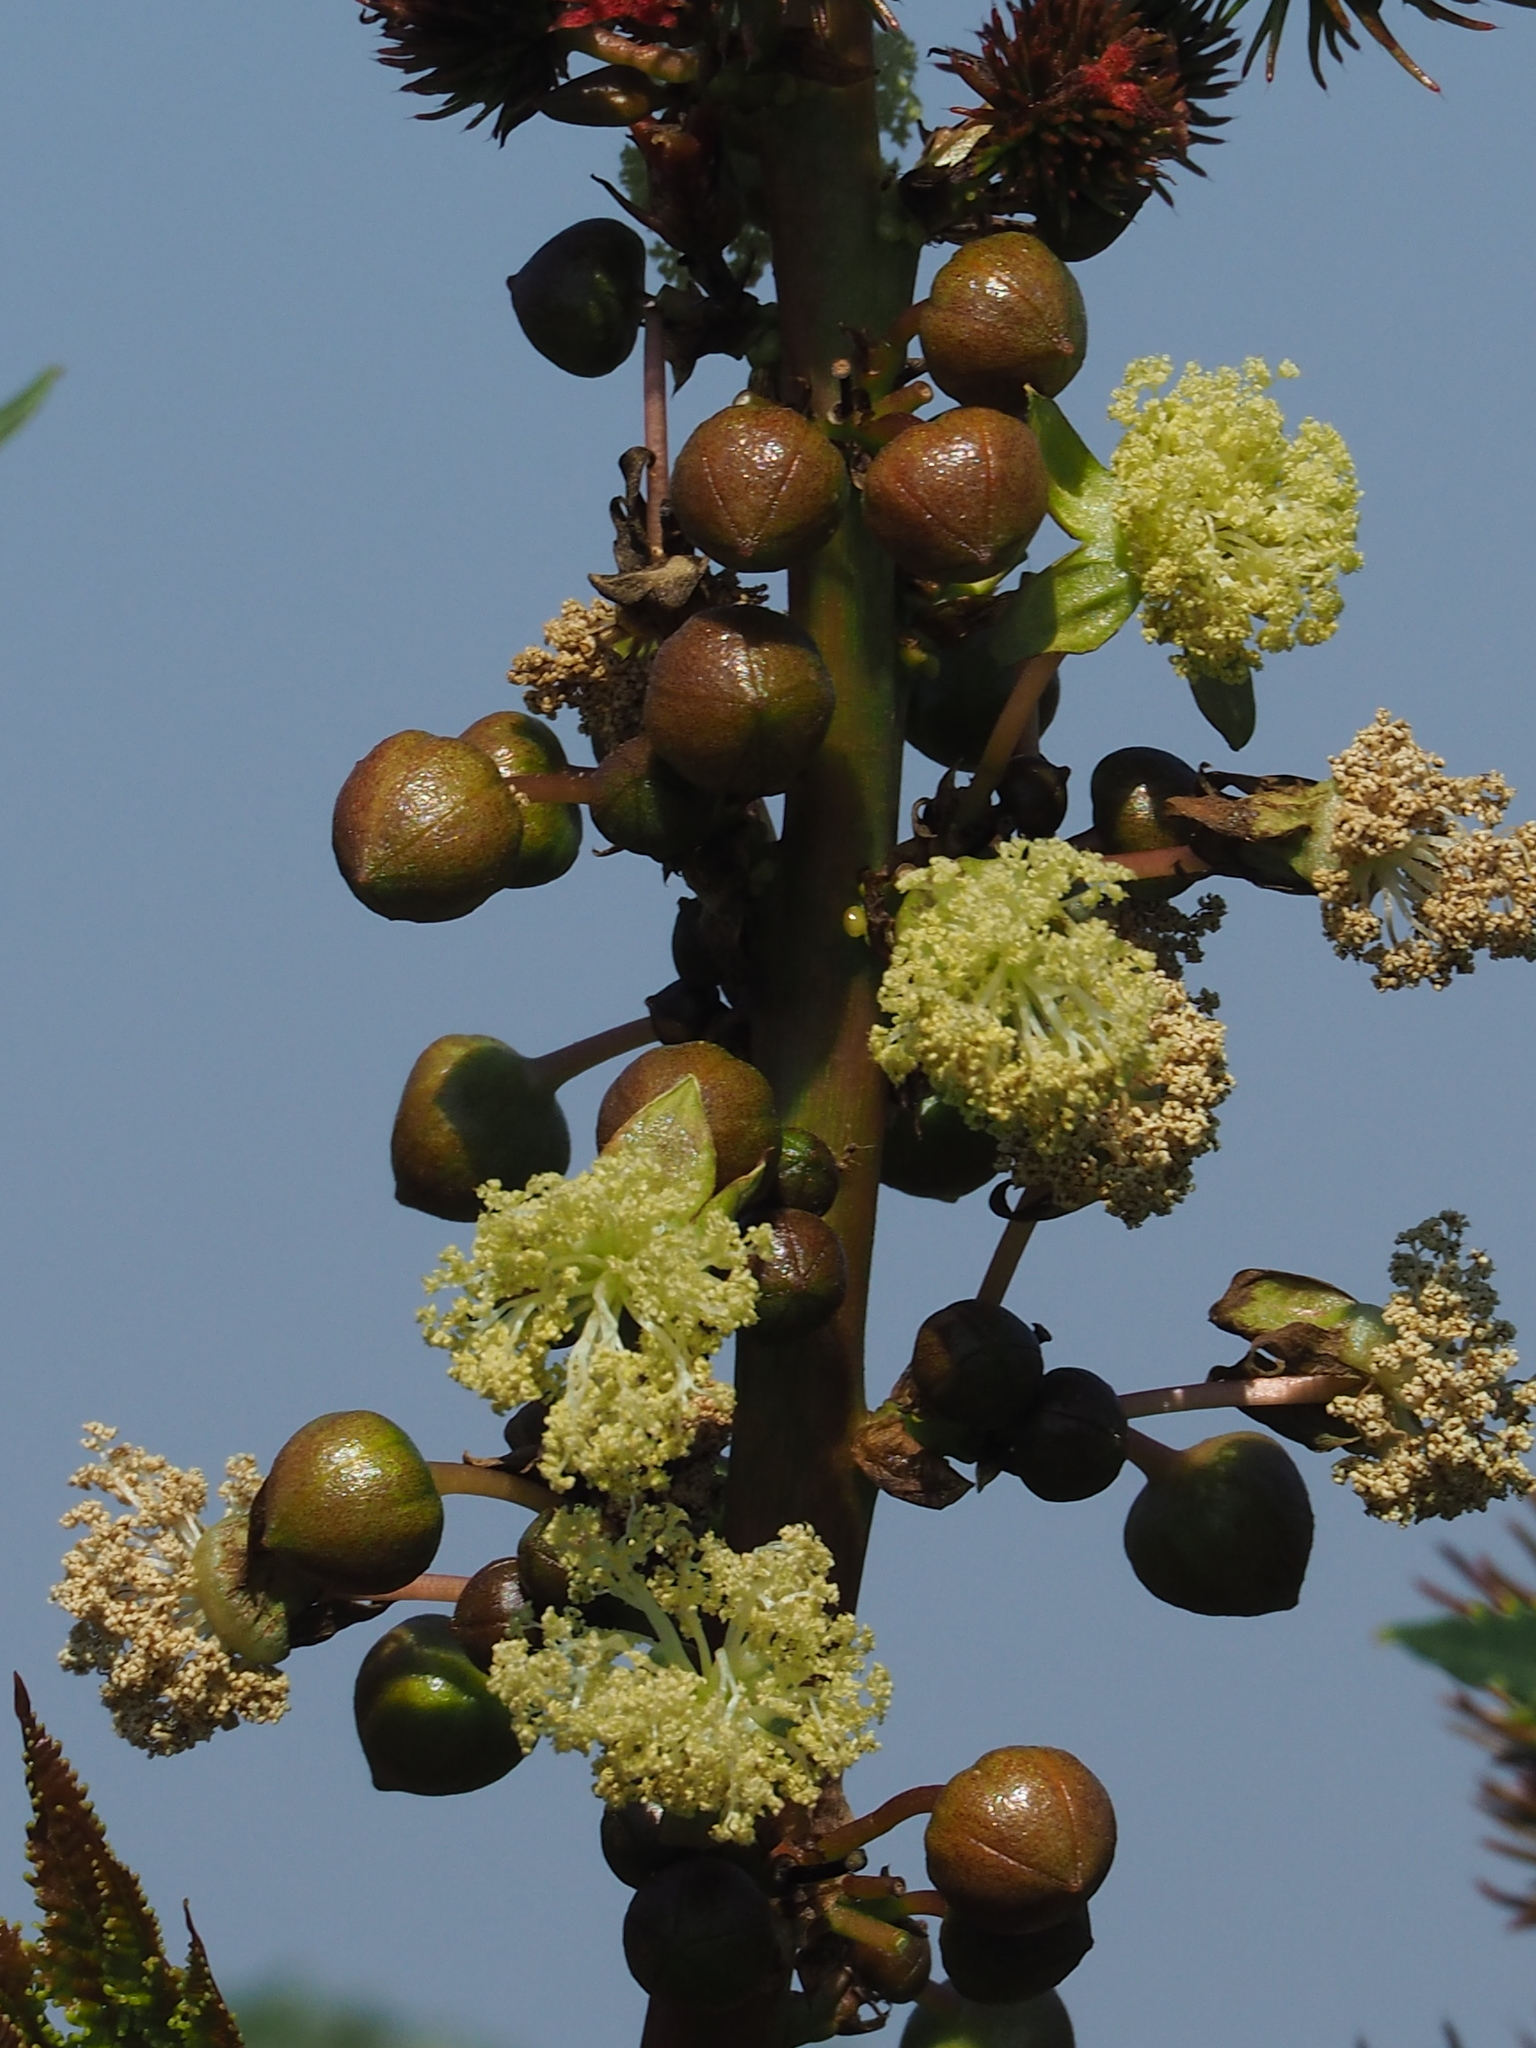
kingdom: Plantae
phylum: Tracheophyta
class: Magnoliopsida
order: Malpighiales
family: Euphorbiaceae
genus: Ricinus
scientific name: Ricinus communis
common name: Castor-oil-plant
